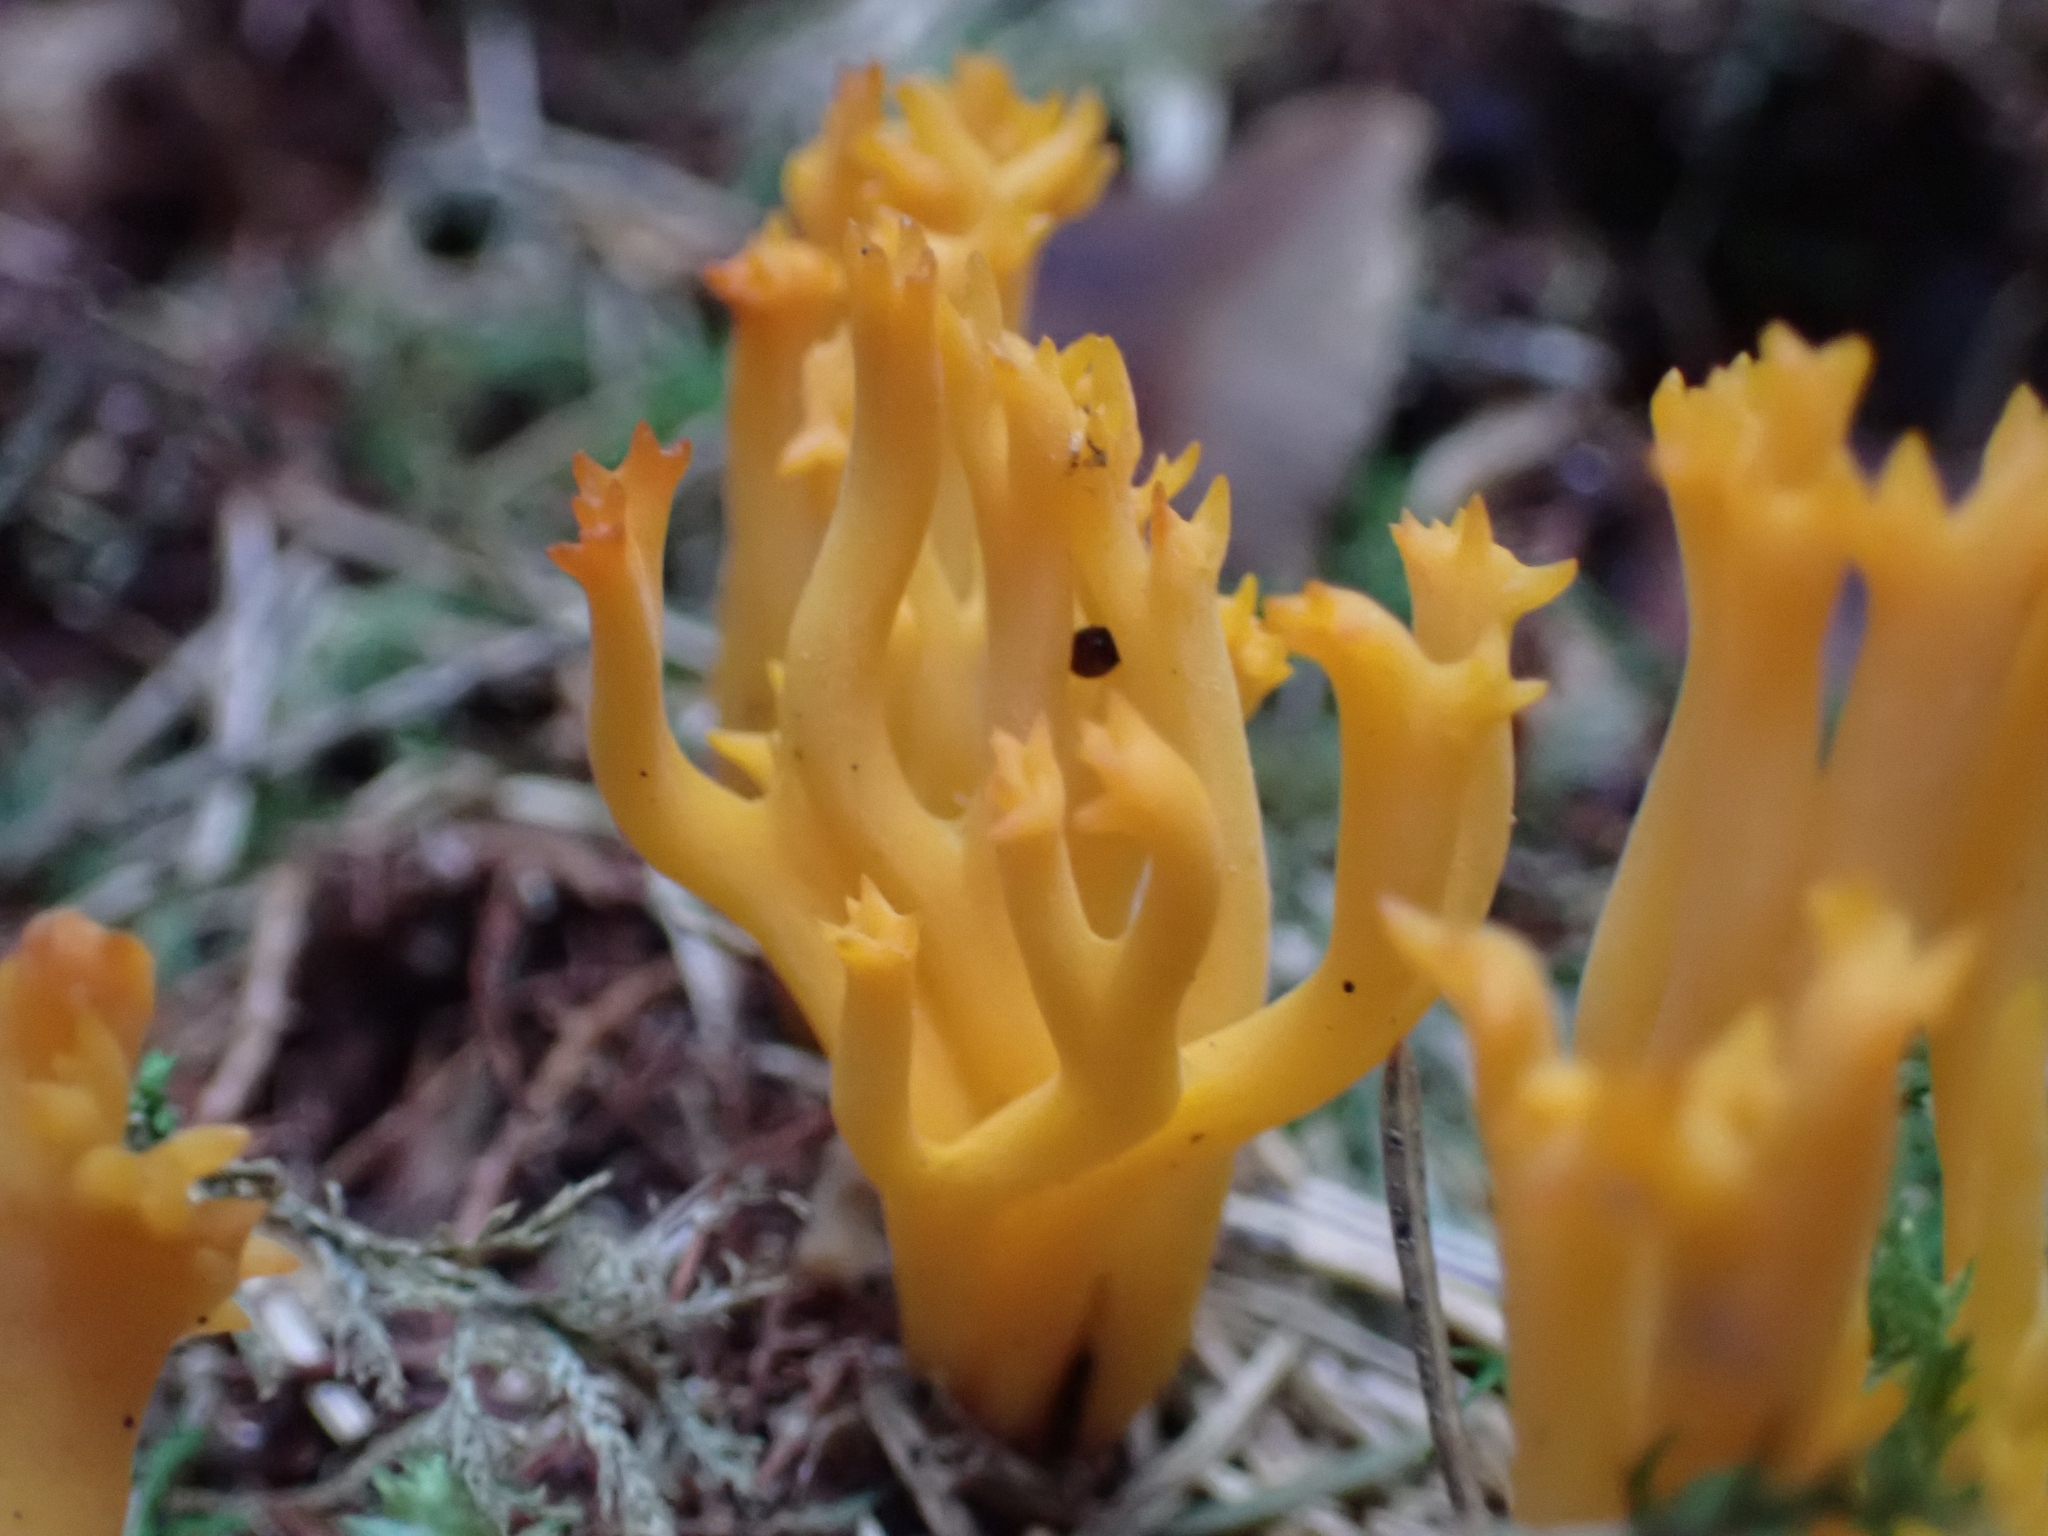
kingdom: Fungi
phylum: Basidiomycota
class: Dacrymycetes
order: Dacrymycetales
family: Dacrymycetaceae
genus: Calocera
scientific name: Calocera viscosa
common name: Yellow stagshorn
